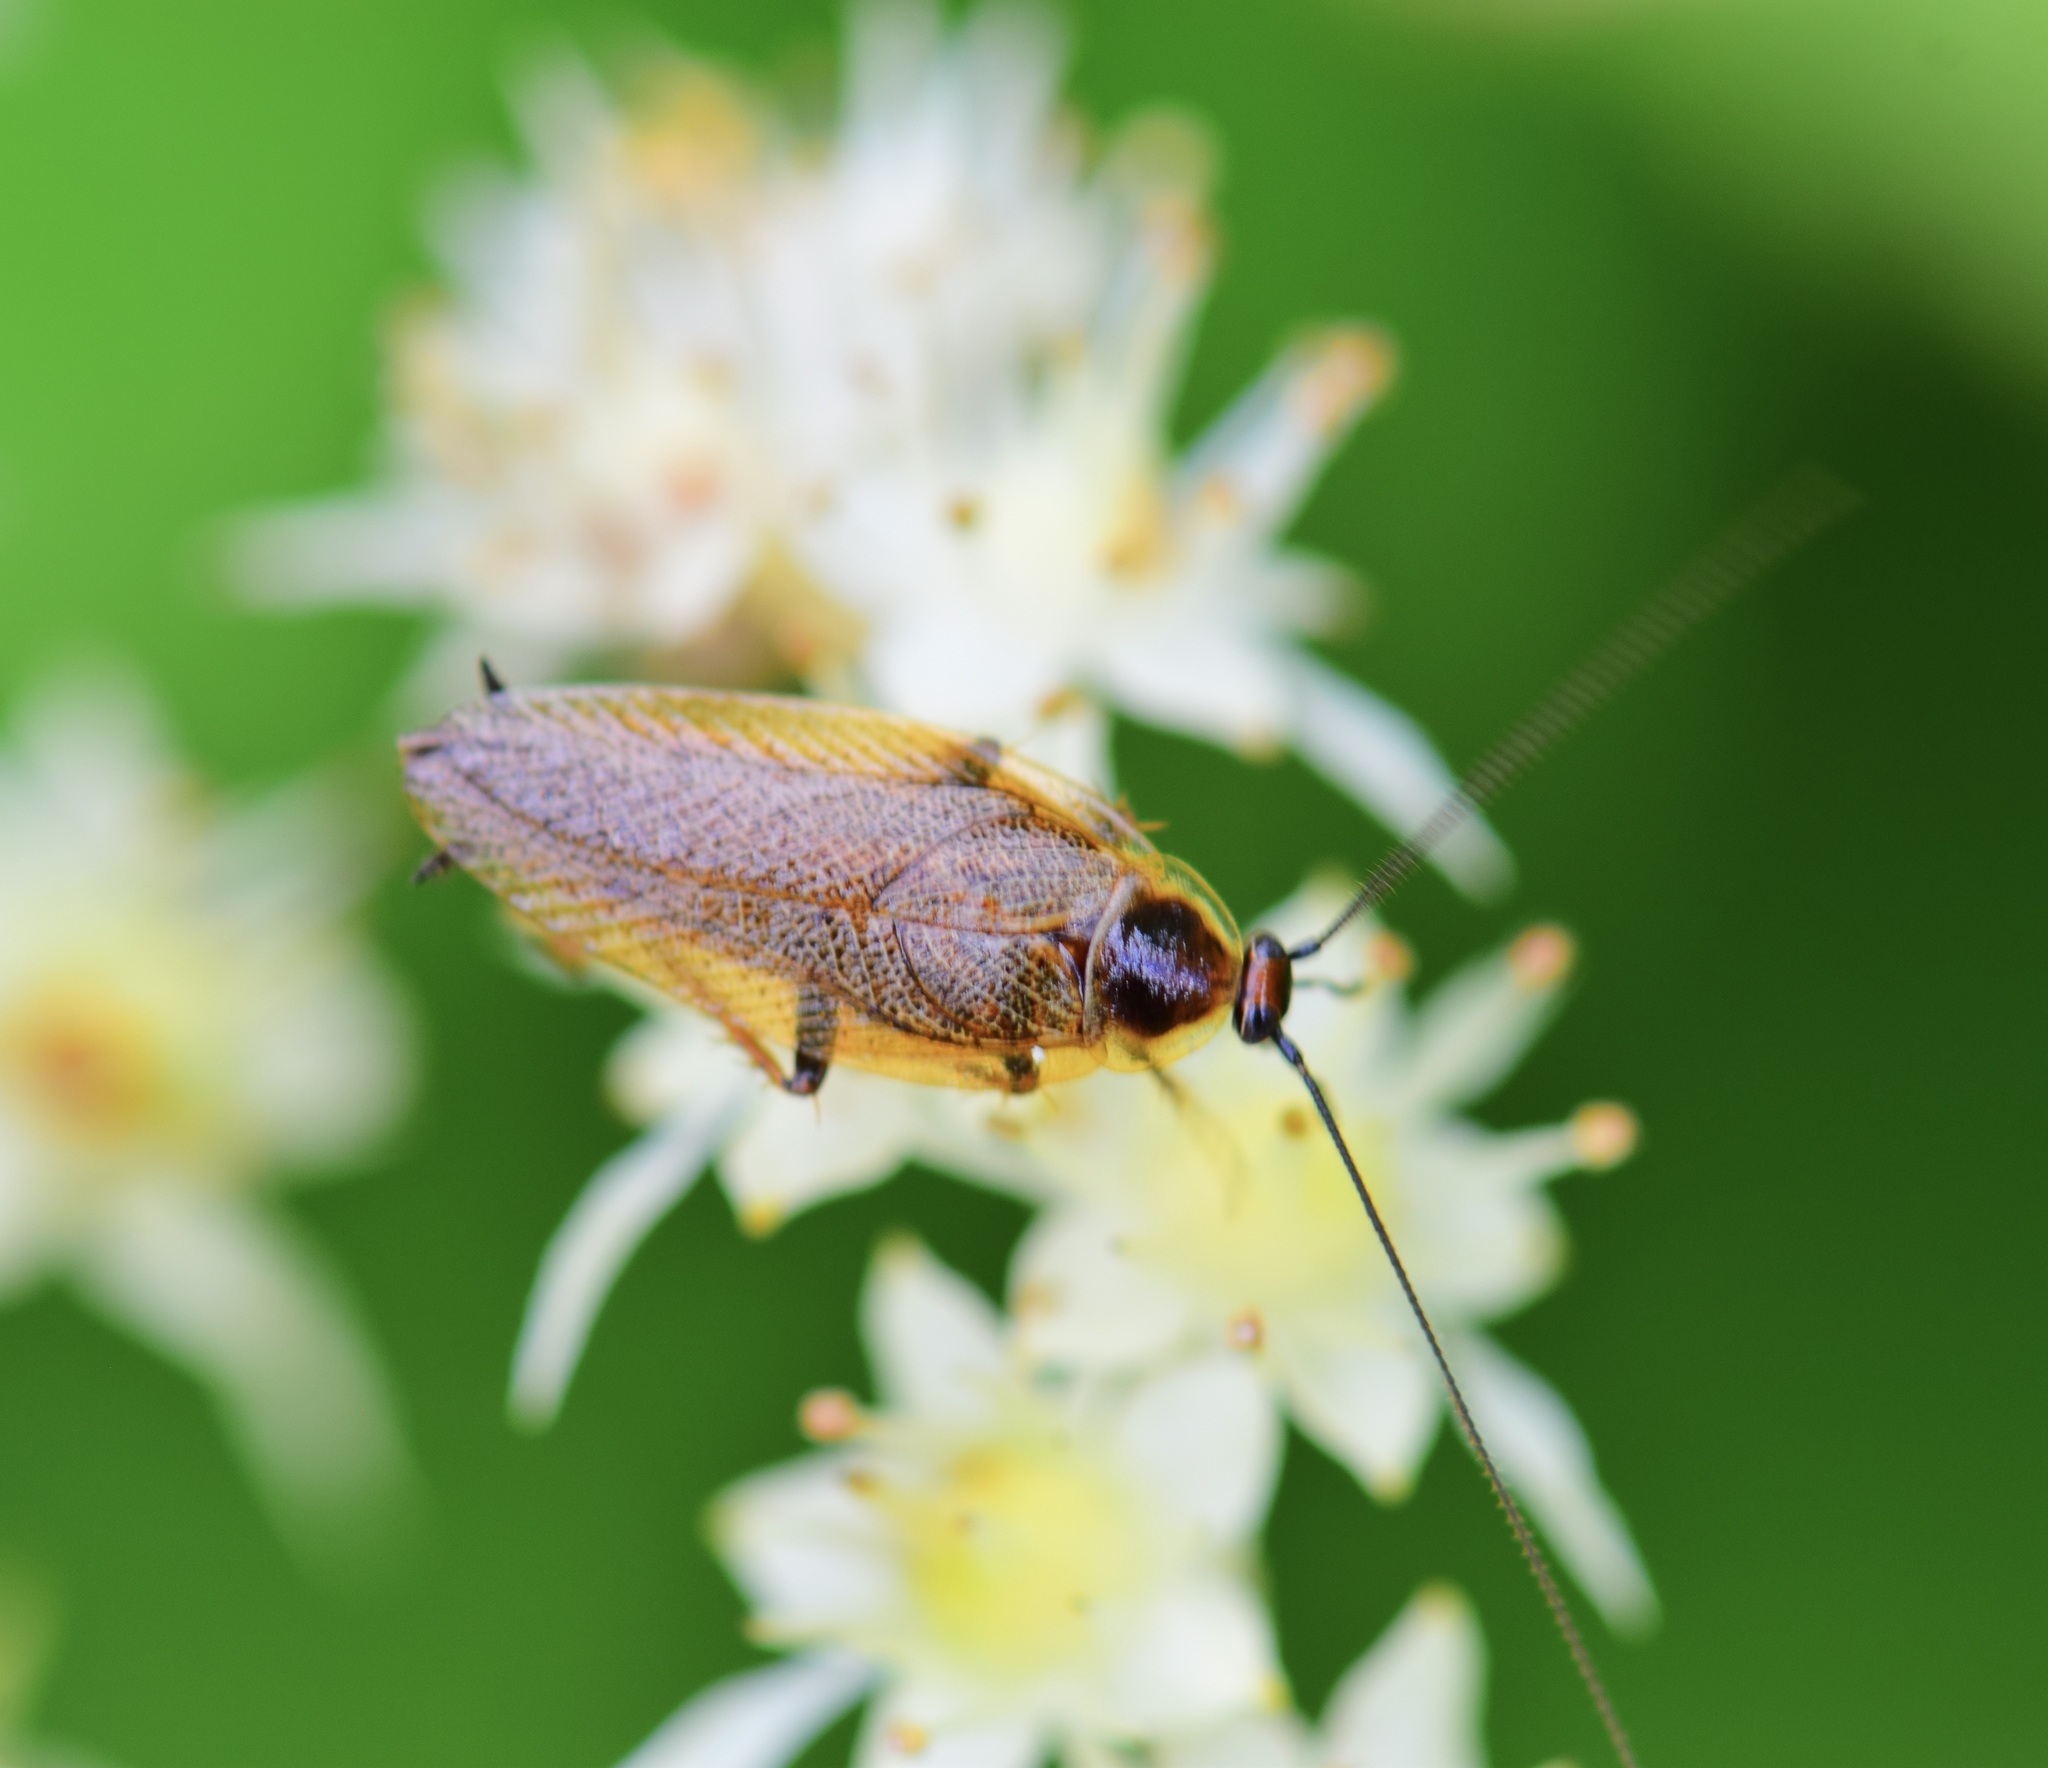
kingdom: Animalia
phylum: Arthropoda
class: Insecta
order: Blattodea
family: Ectobiidae
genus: Ectobius
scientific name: Ectobius lapponicus
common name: Dusky cockroach
